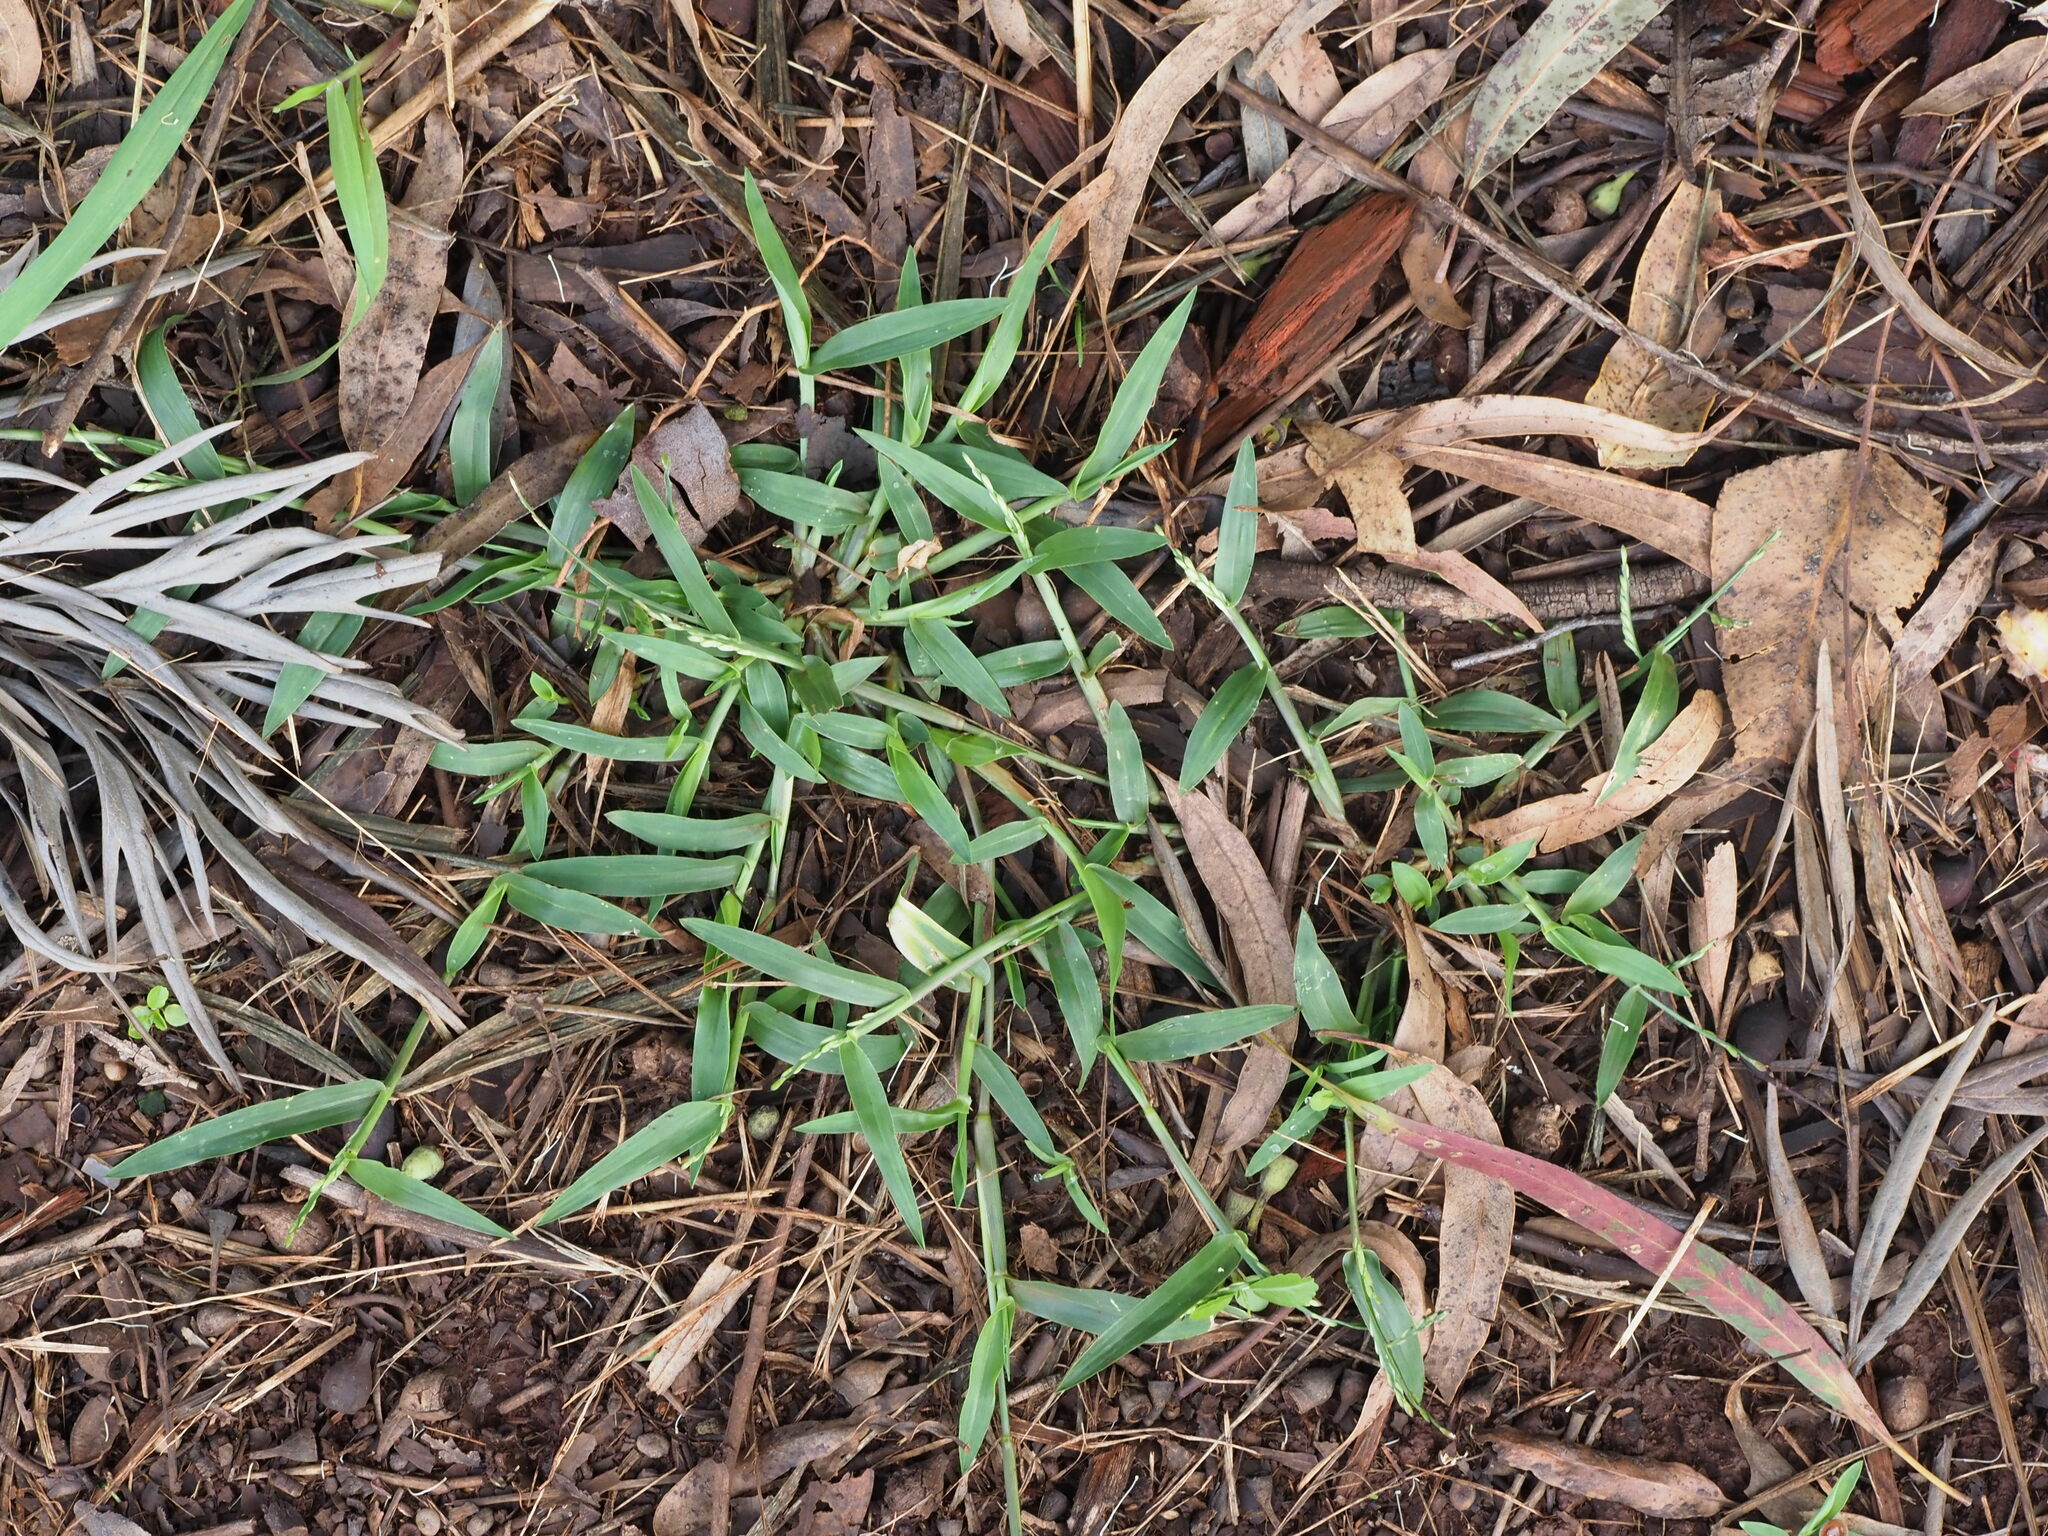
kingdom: Plantae
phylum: Tracheophyta
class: Liliopsida
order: Poales
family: Poaceae
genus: Digitaria
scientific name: Digitaria ciliaris
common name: Tropical finger-grass
